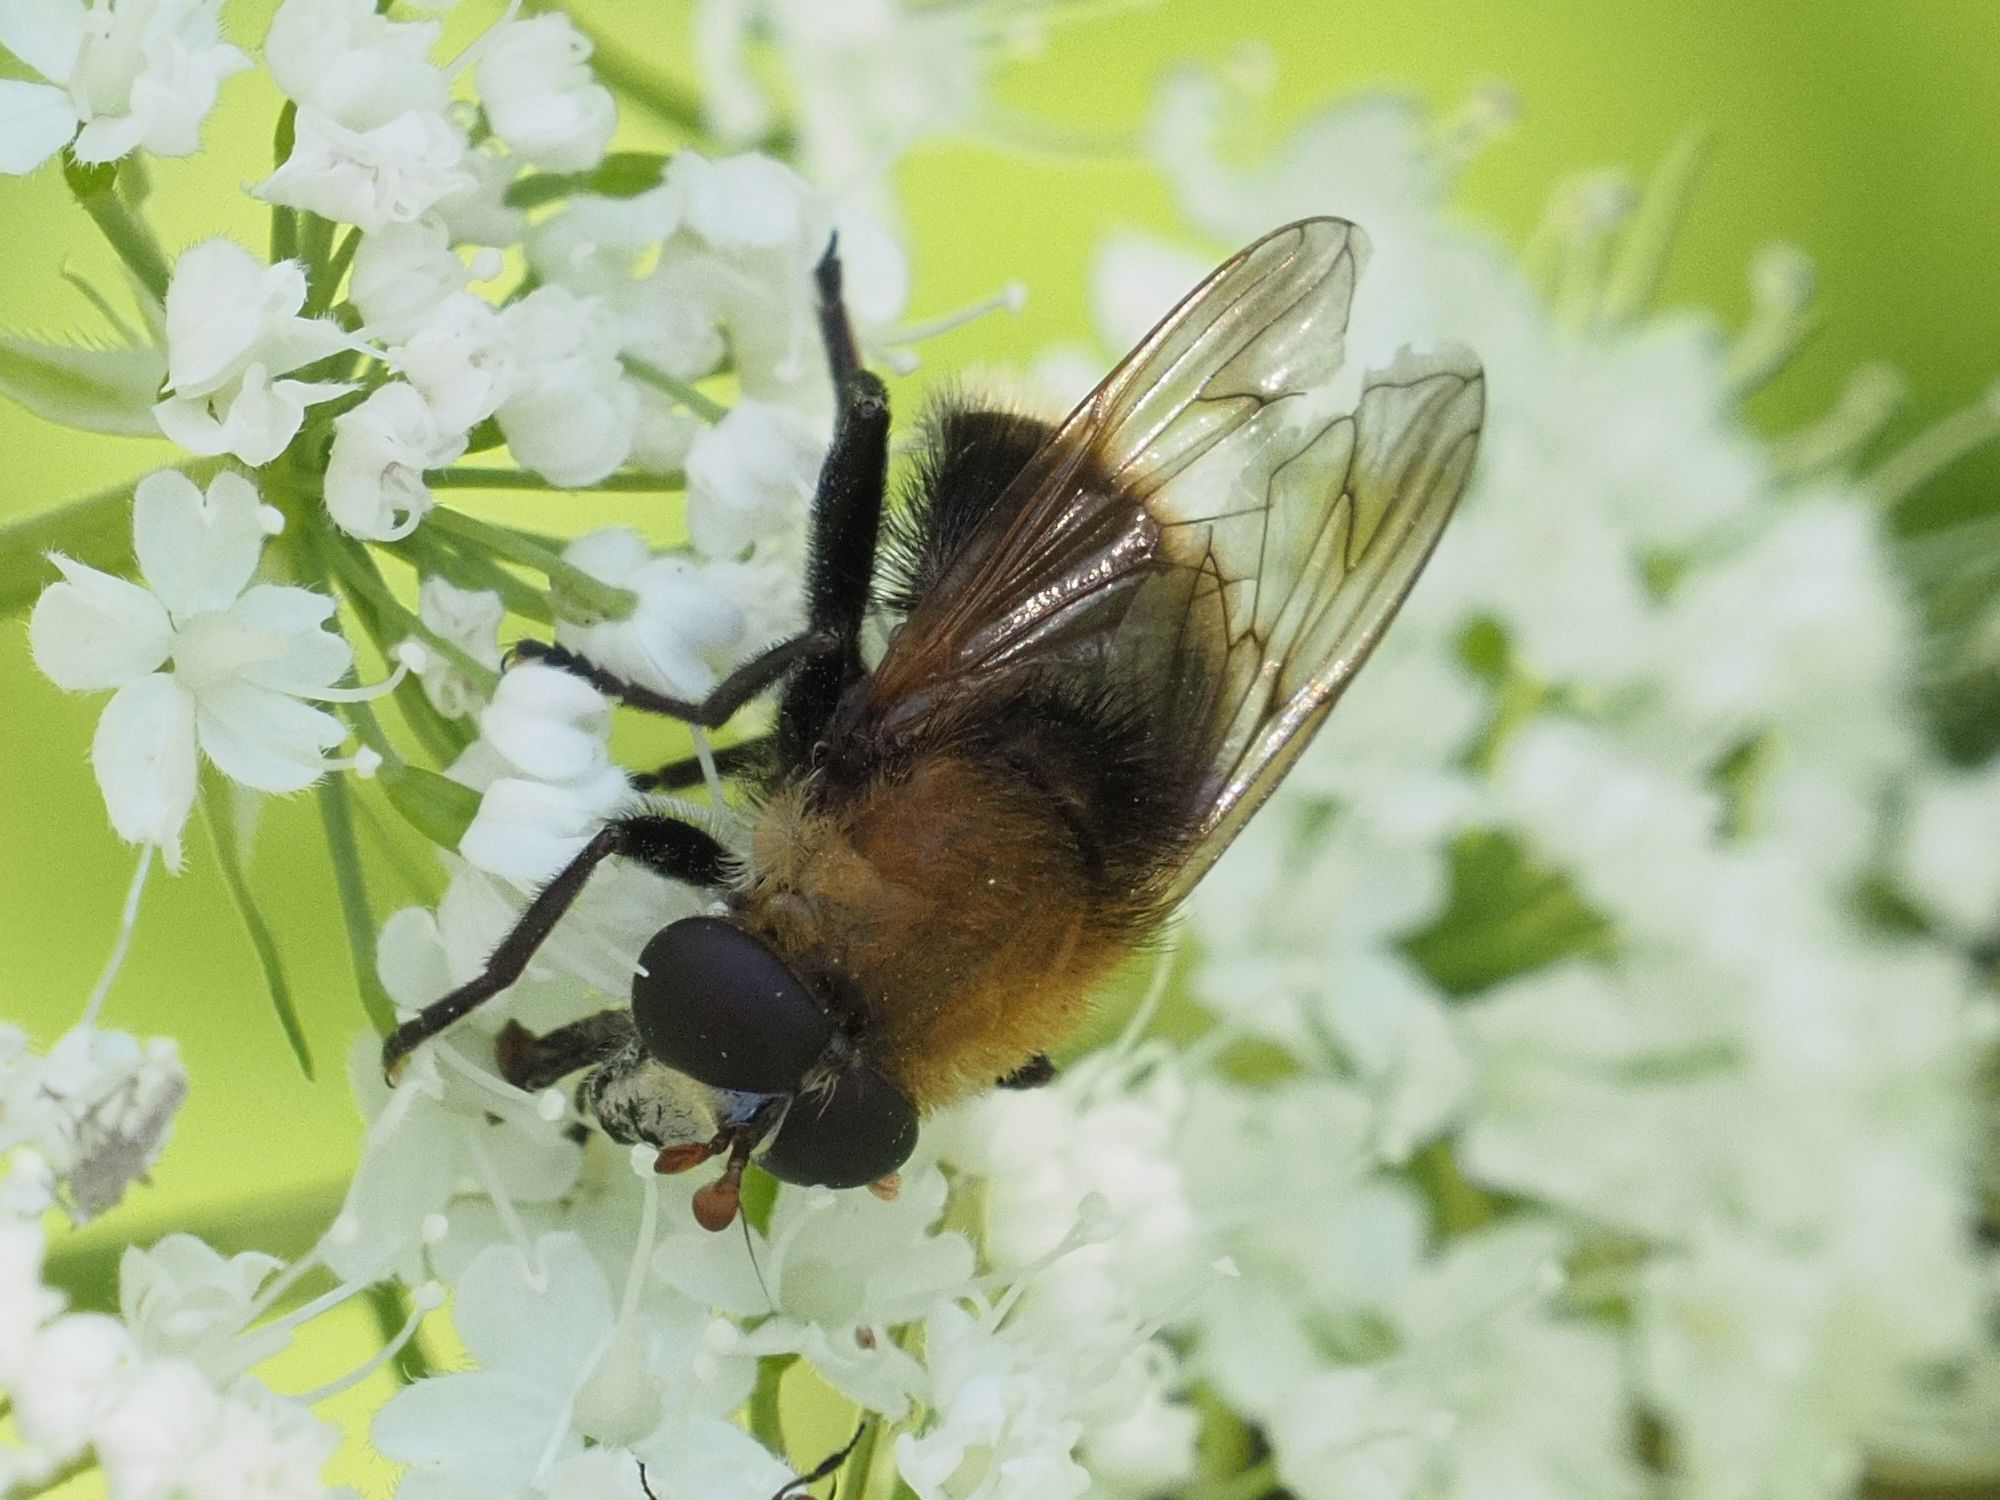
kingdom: Animalia
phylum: Arthropoda
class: Insecta
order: Diptera
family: Syrphidae
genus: Criorhina
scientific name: Criorhina berberina
